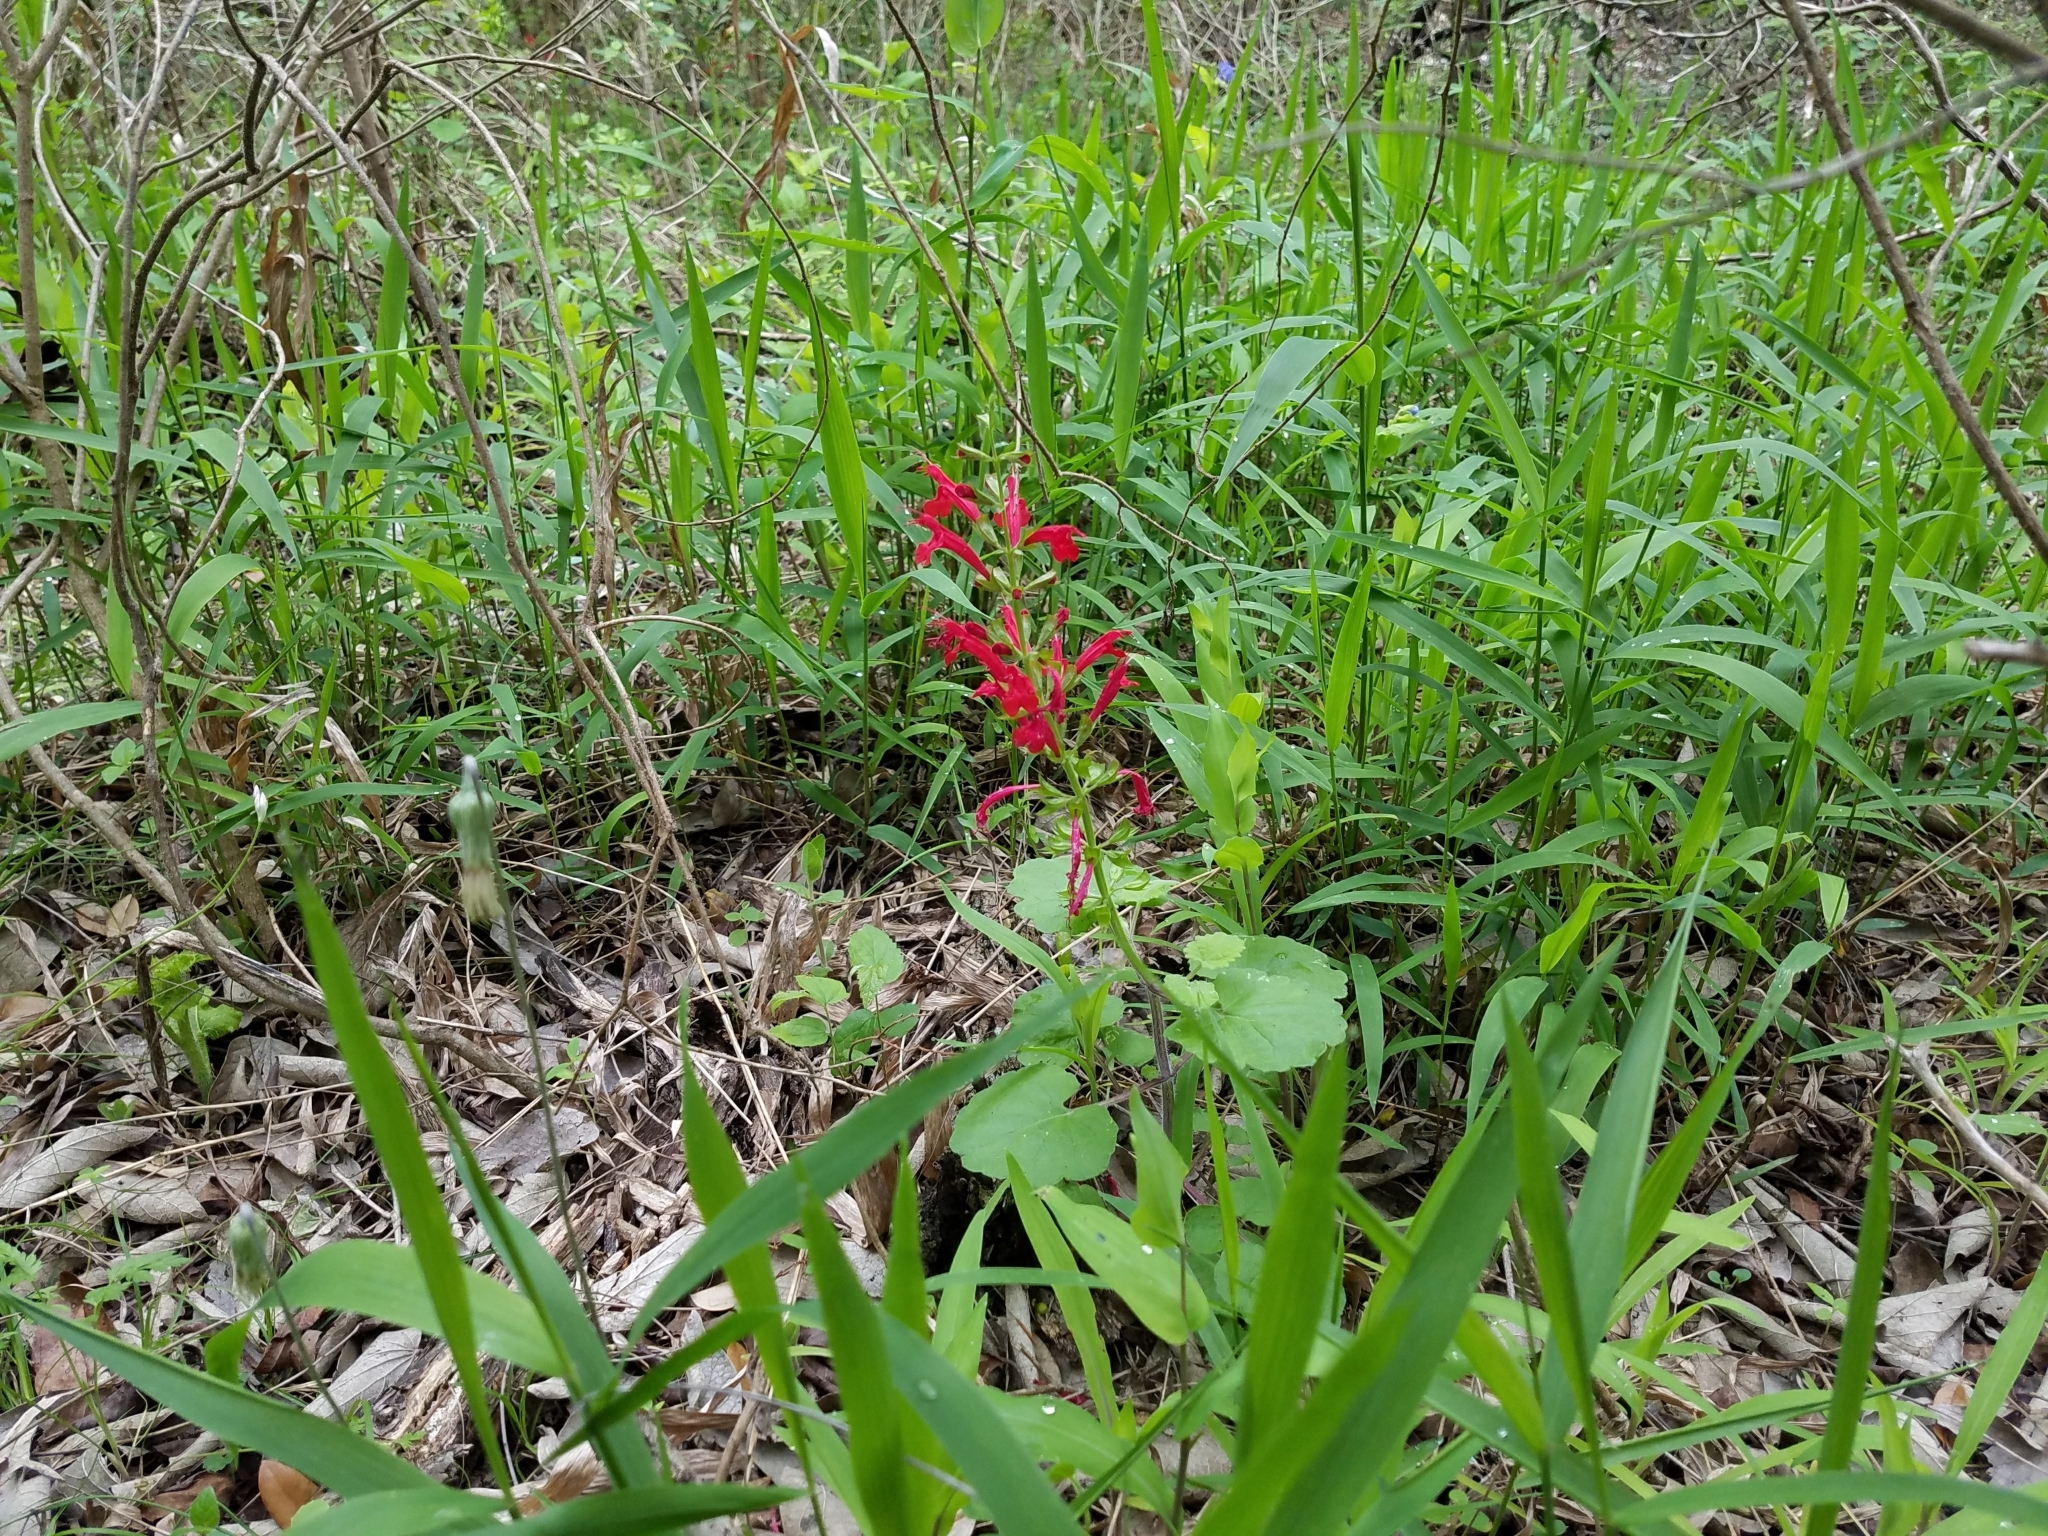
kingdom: Plantae
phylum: Tracheophyta
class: Magnoliopsida
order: Lamiales
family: Lamiaceae
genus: Salvia
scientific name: Salvia roemeriana
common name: Cedar sage
